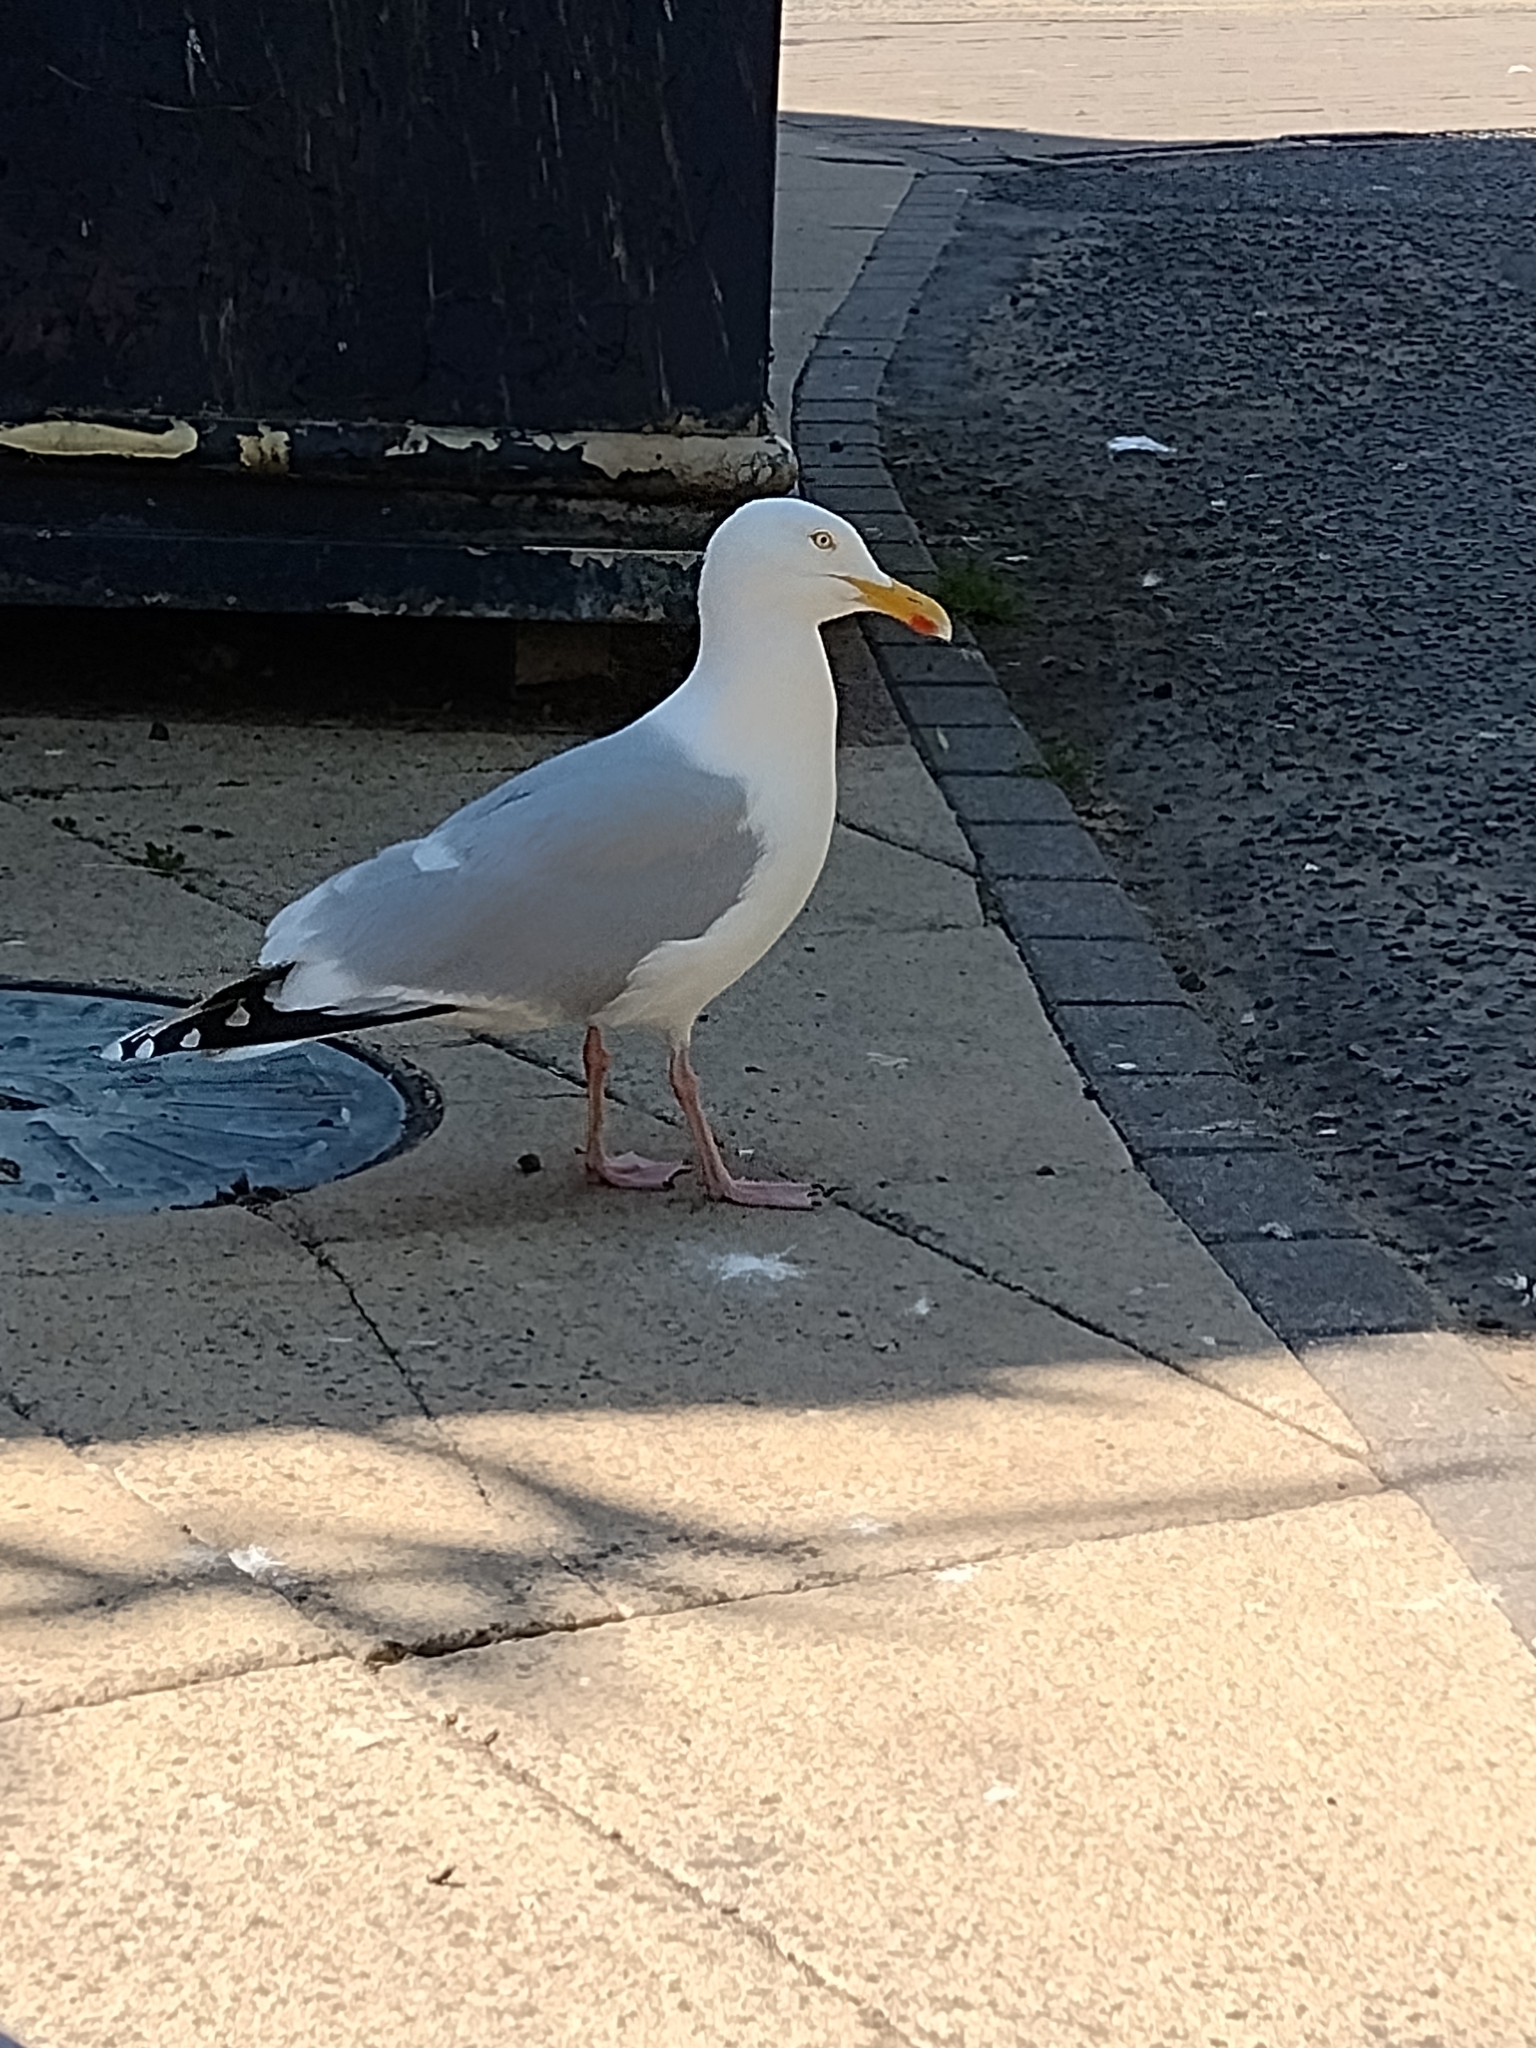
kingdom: Animalia
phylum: Chordata
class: Aves
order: Charadriiformes
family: Laridae
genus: Larus
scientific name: Larus argentatus
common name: Herring gull
